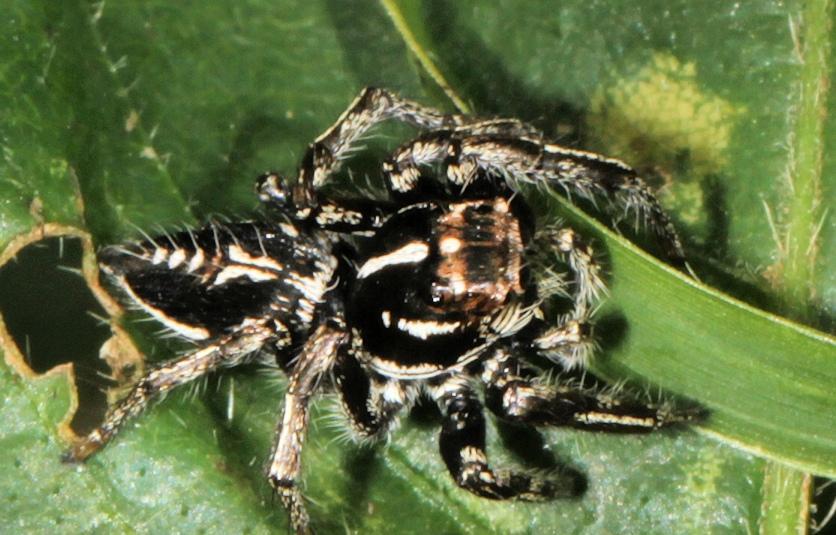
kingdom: Animalia
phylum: Arthropoda
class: Arachnida
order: Araneae
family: Salticidae
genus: Hyllus
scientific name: Hyllus argyrotoxus
